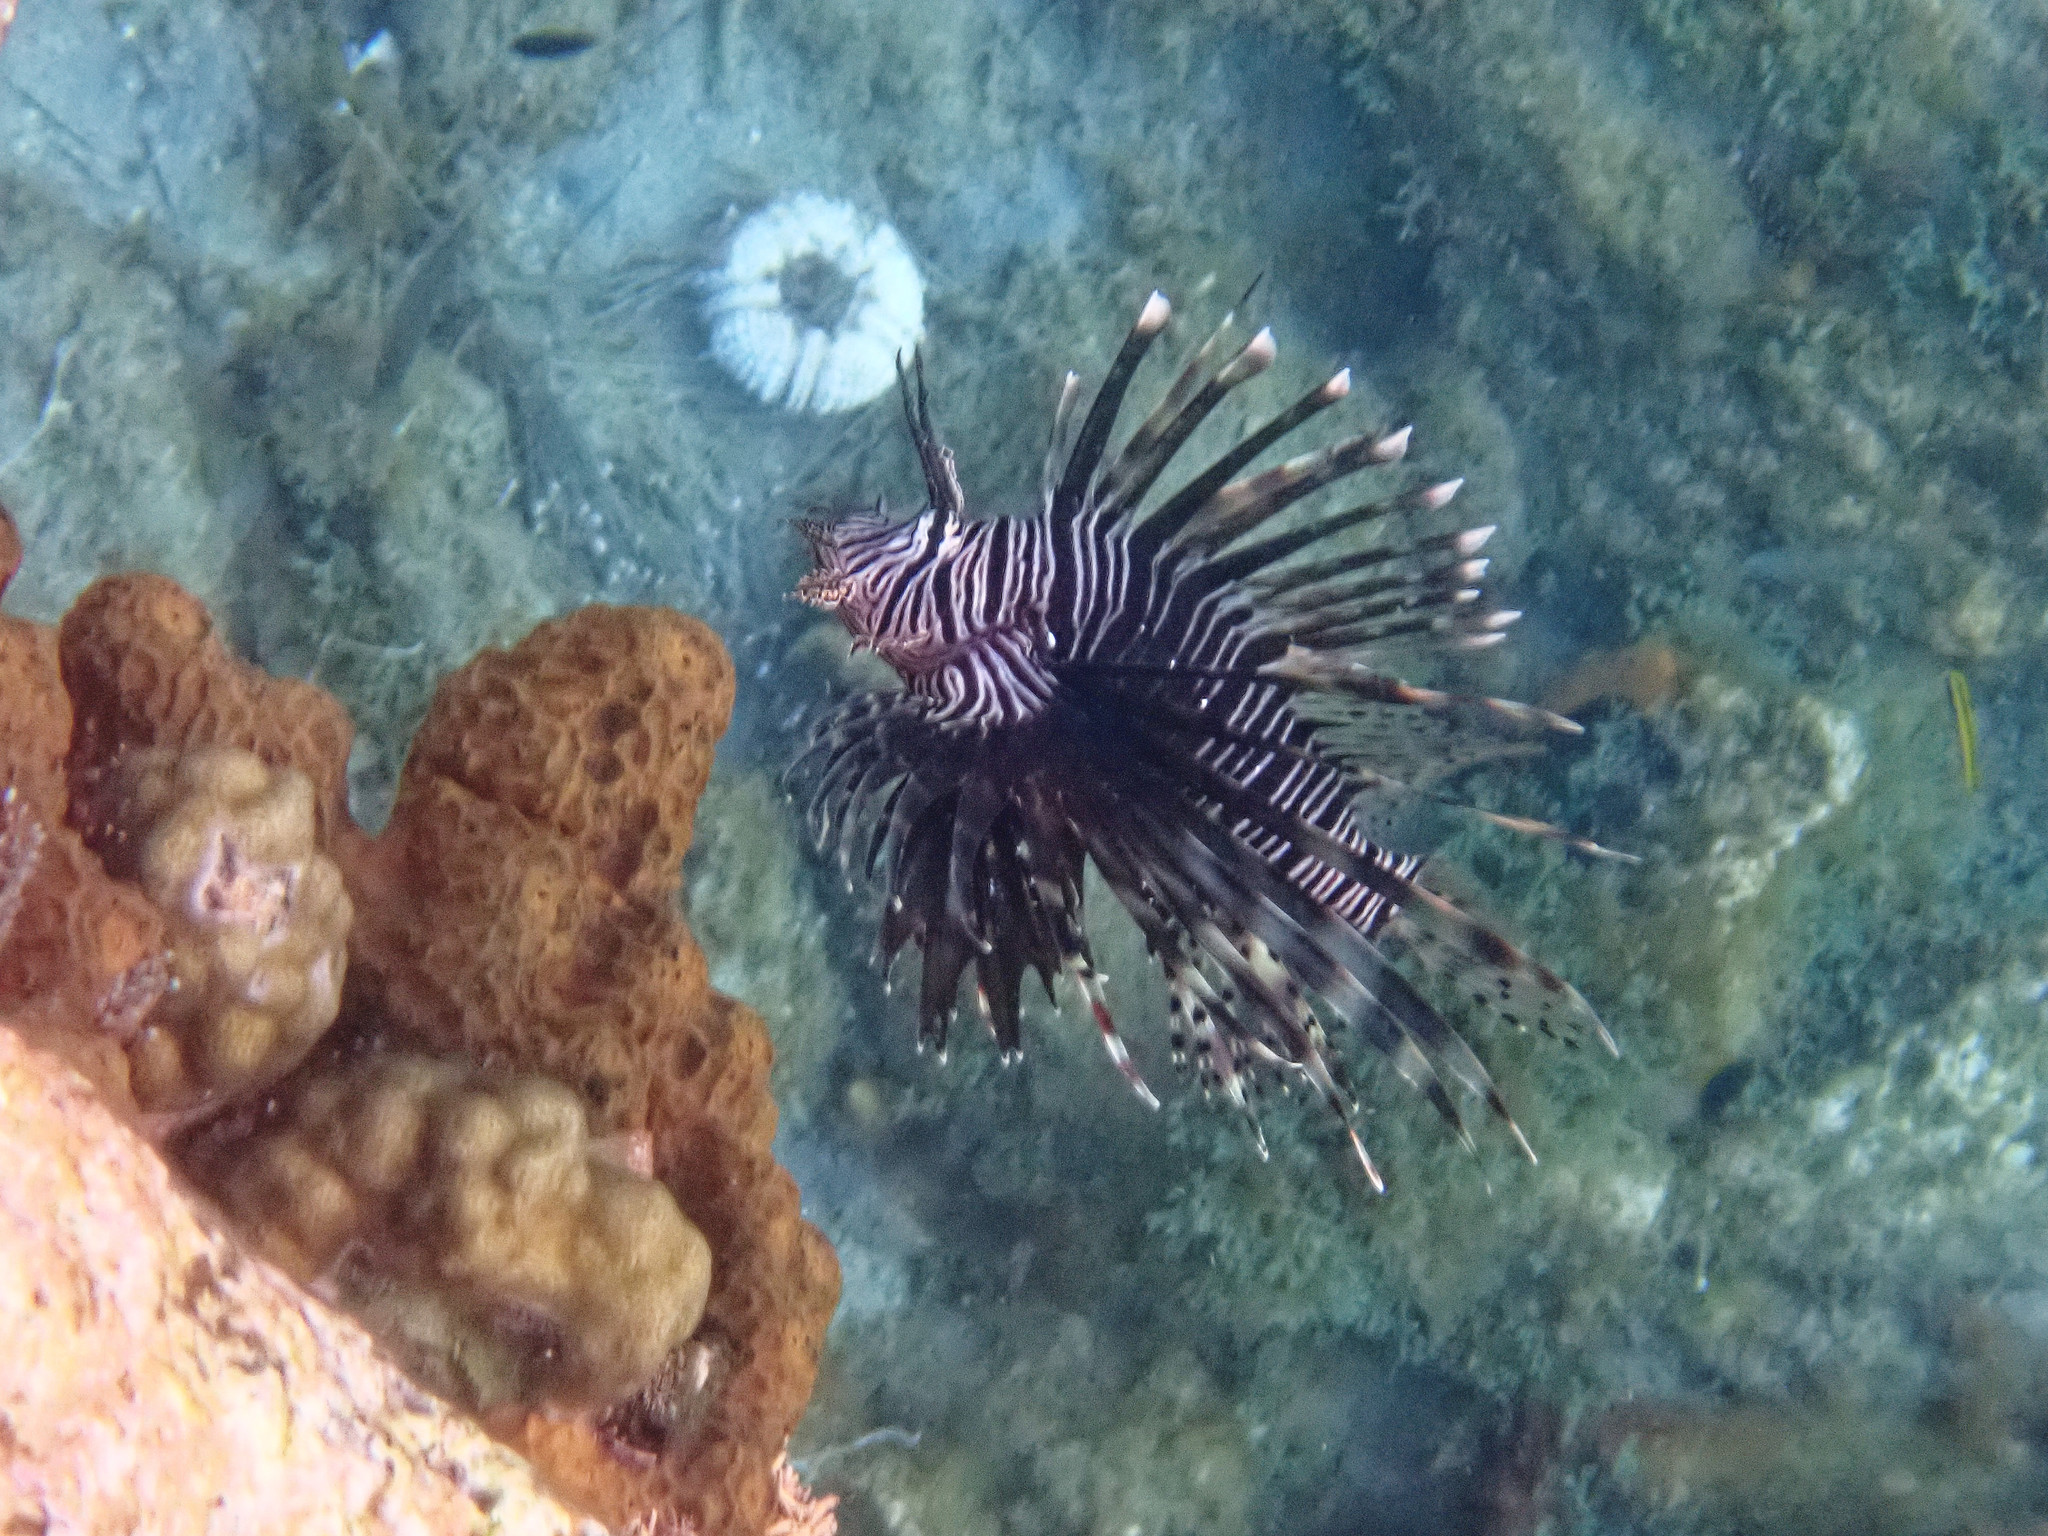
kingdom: Animalia
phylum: Chordata
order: Scorpaeniformes
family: Scorpaenidae
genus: Pterois
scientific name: Pterois volitans
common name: Lionfish
